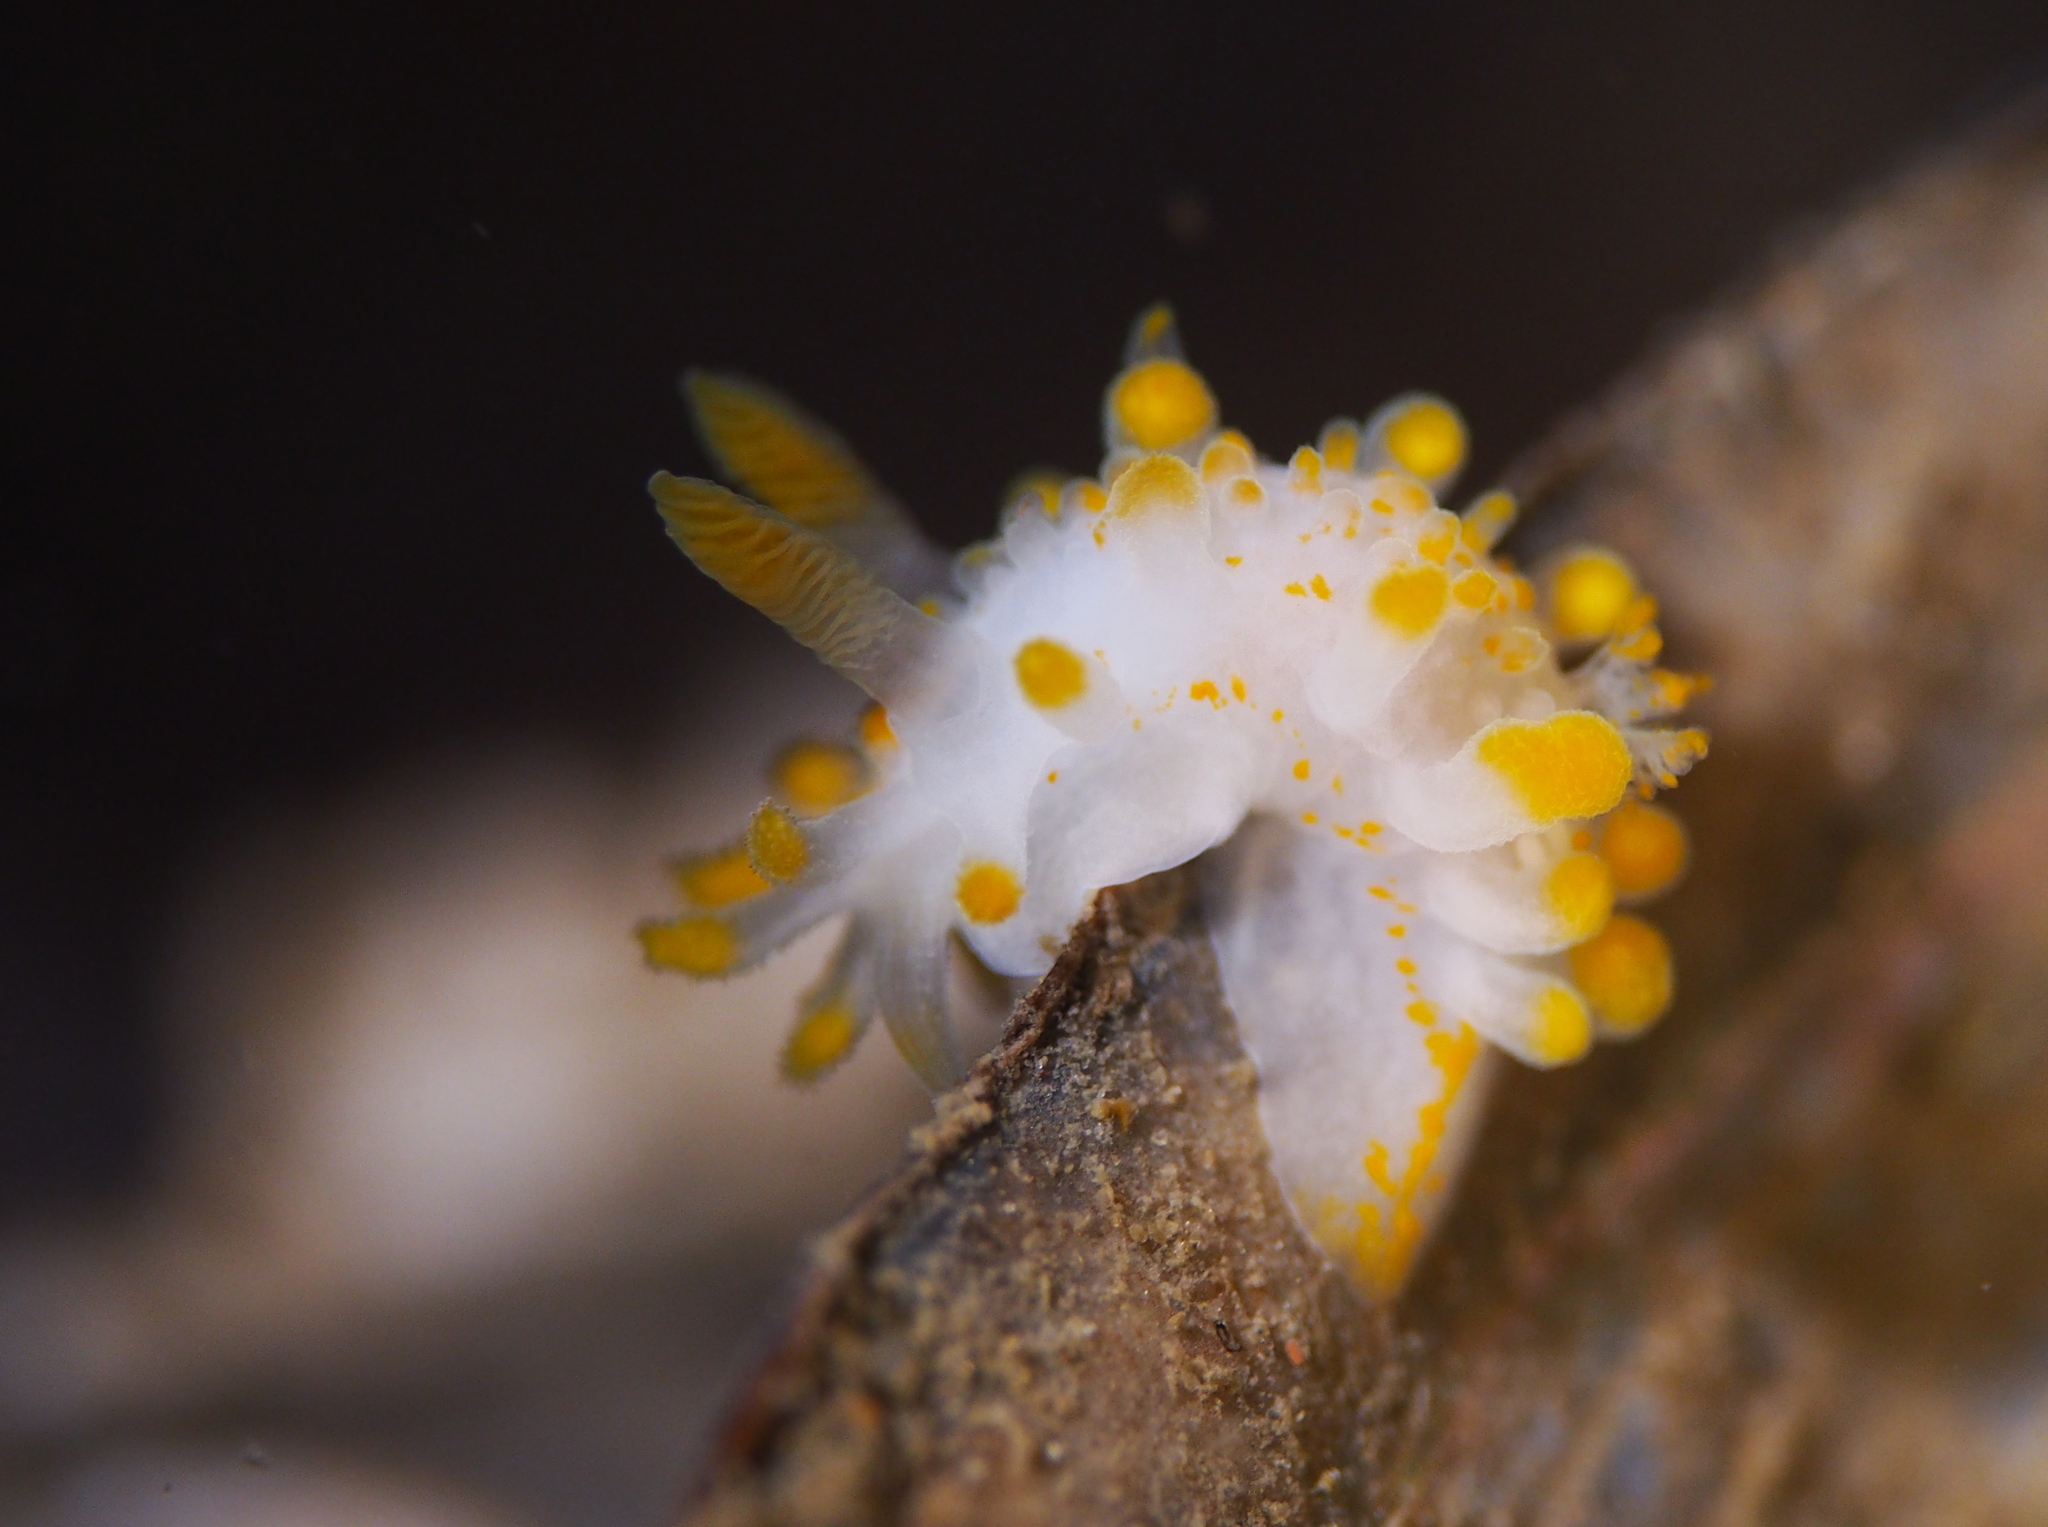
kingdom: Animalia
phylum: Mollusca
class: Gastropoda
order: Nudibranchia
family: Polyceridae
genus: Limacia
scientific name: Limacia clavigera
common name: Orange-clubbed sea slug
